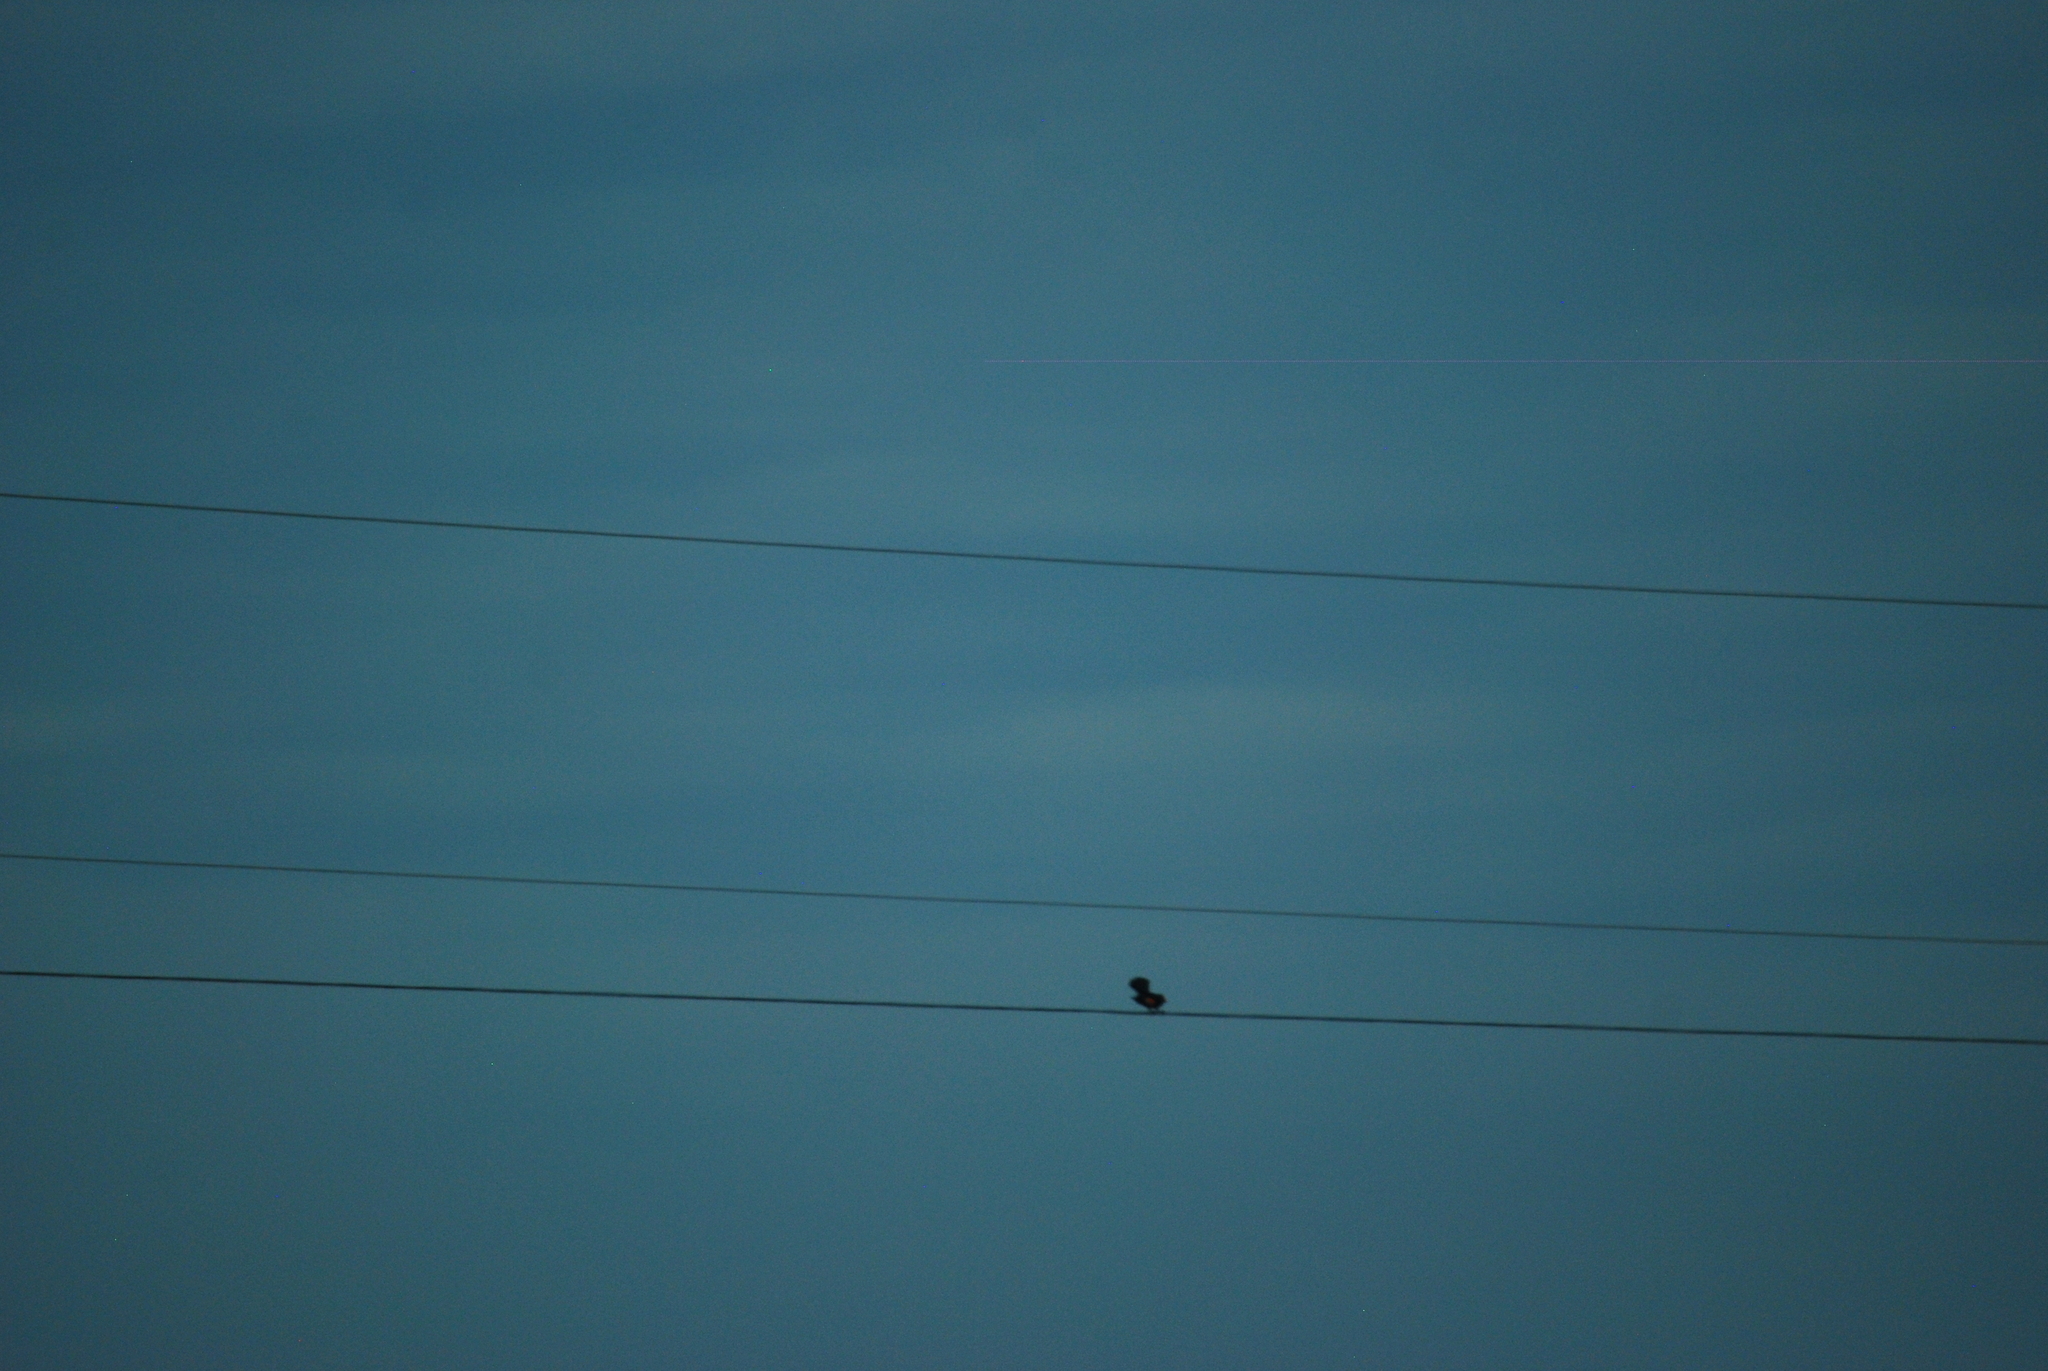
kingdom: Animalia
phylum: Chordata
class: Aves
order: Passeriformes
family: Icteridae
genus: Agelaius
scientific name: Agelaius phoeniceus
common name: Red-winged blackbird
